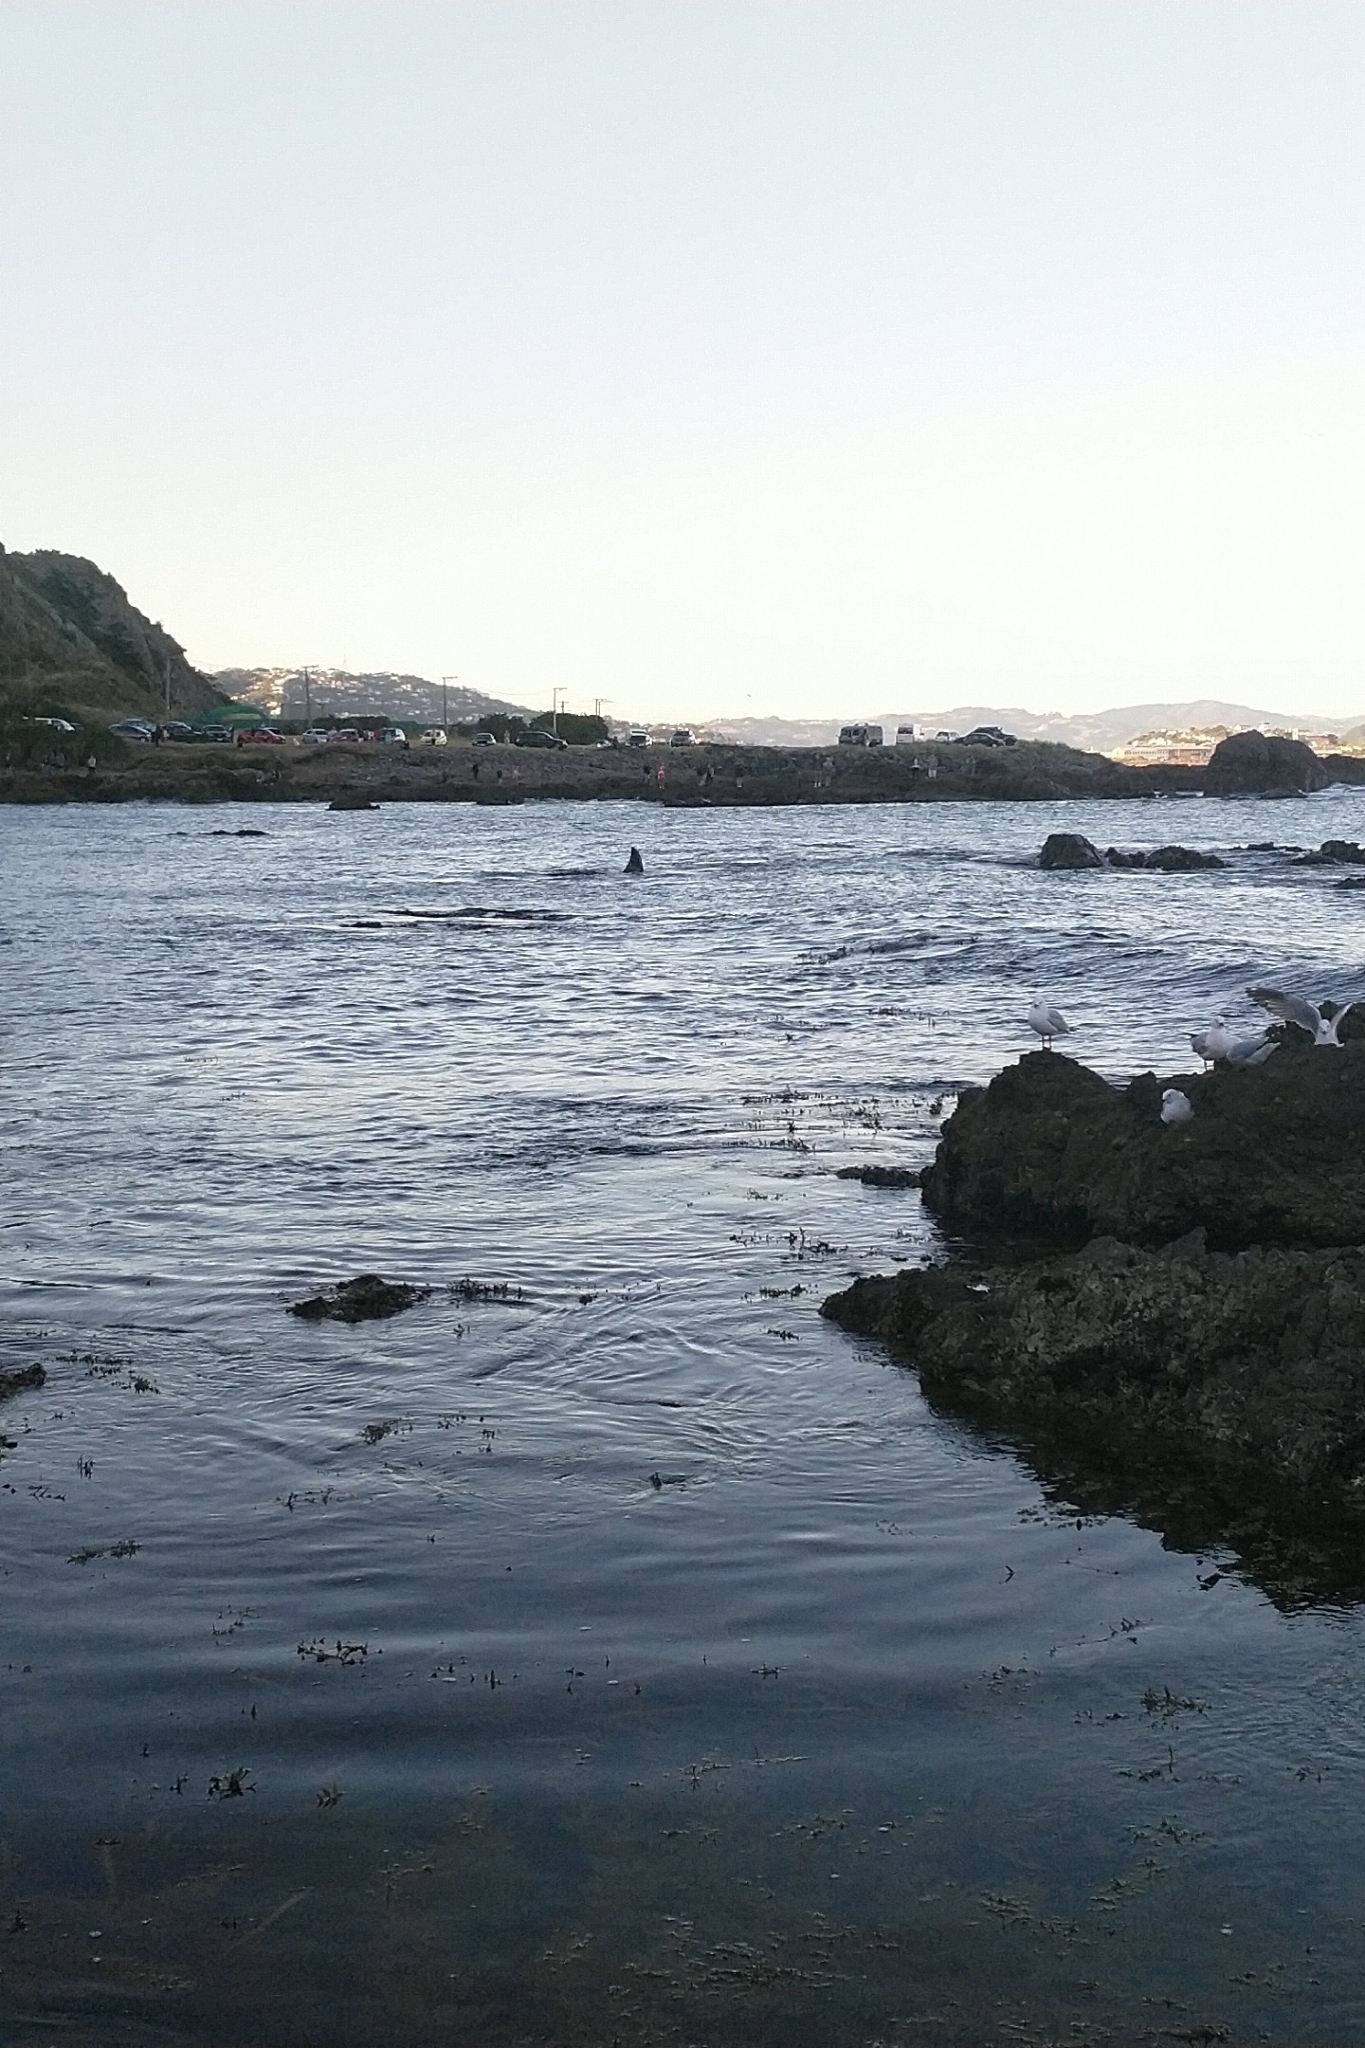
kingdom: Animalia
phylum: Chordata
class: Mammalia
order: Cetacea
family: Delphinidae
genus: Orcinus
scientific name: Orcinus orca
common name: Killer whale
